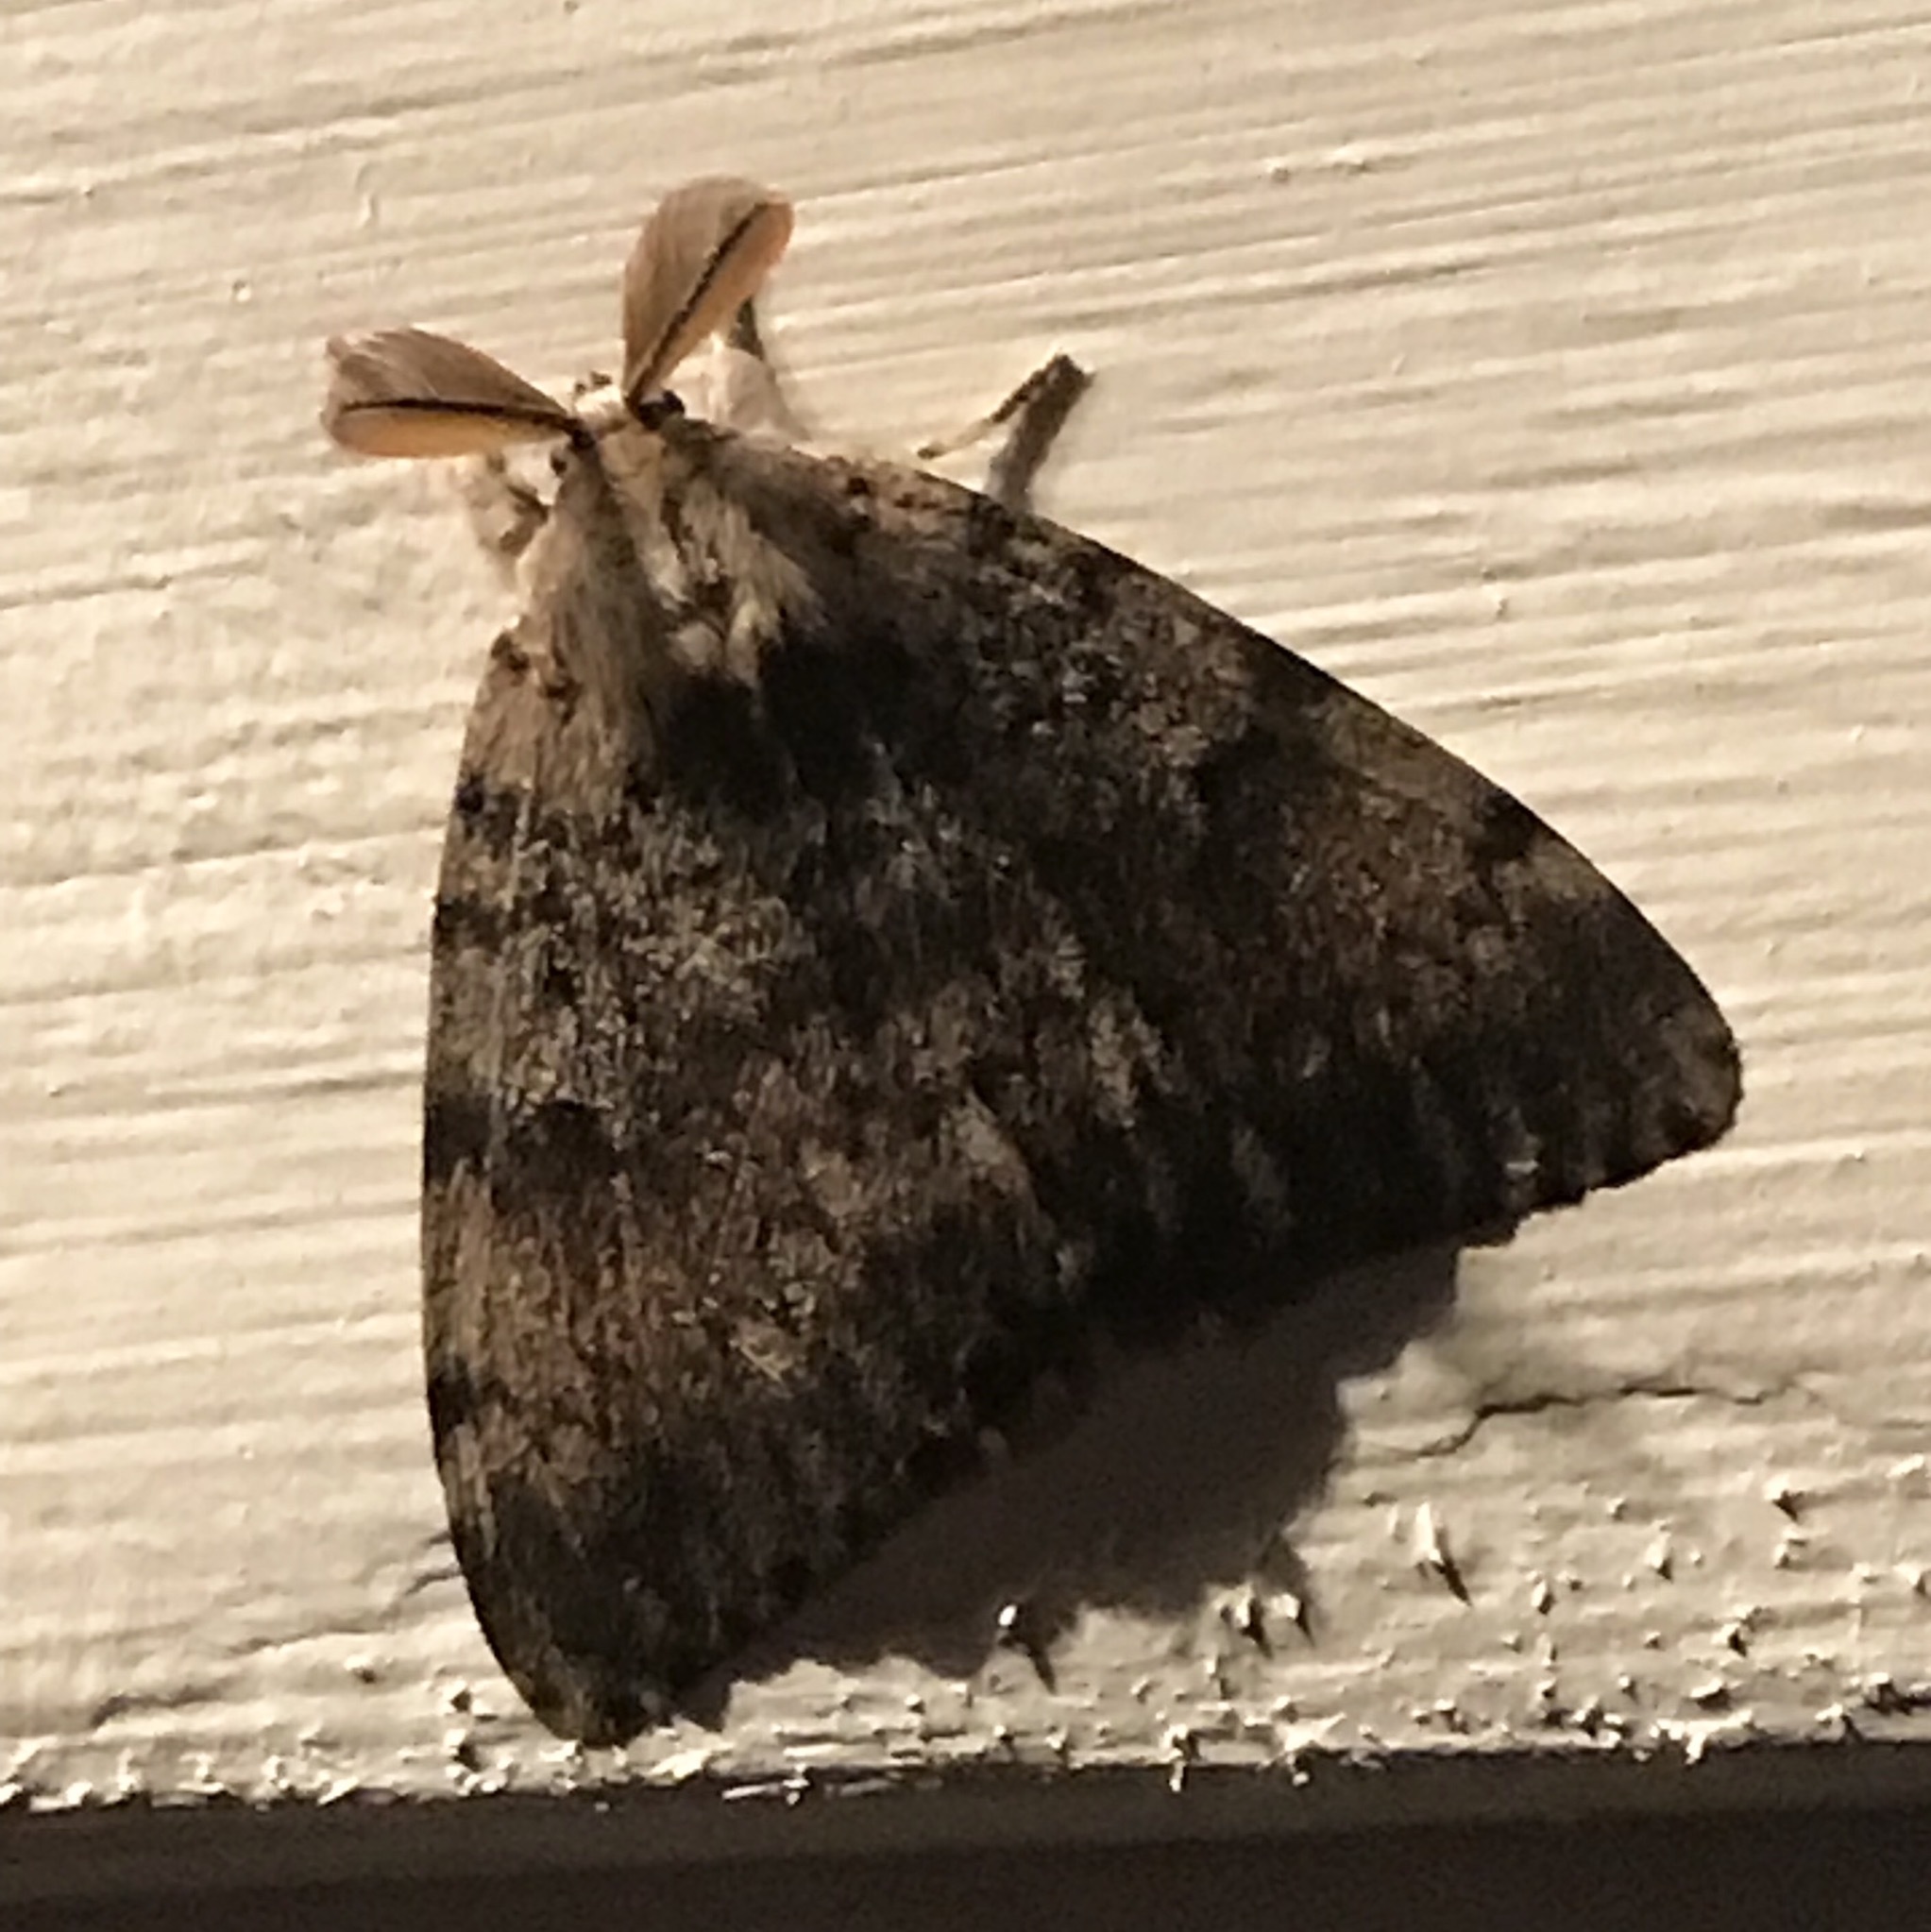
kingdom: Animalia
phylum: Arthropoda
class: Insecta
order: Lepidoptera
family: Erebidae
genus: Lymantria
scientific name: Lymantria dispar
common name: Gypsy moth
